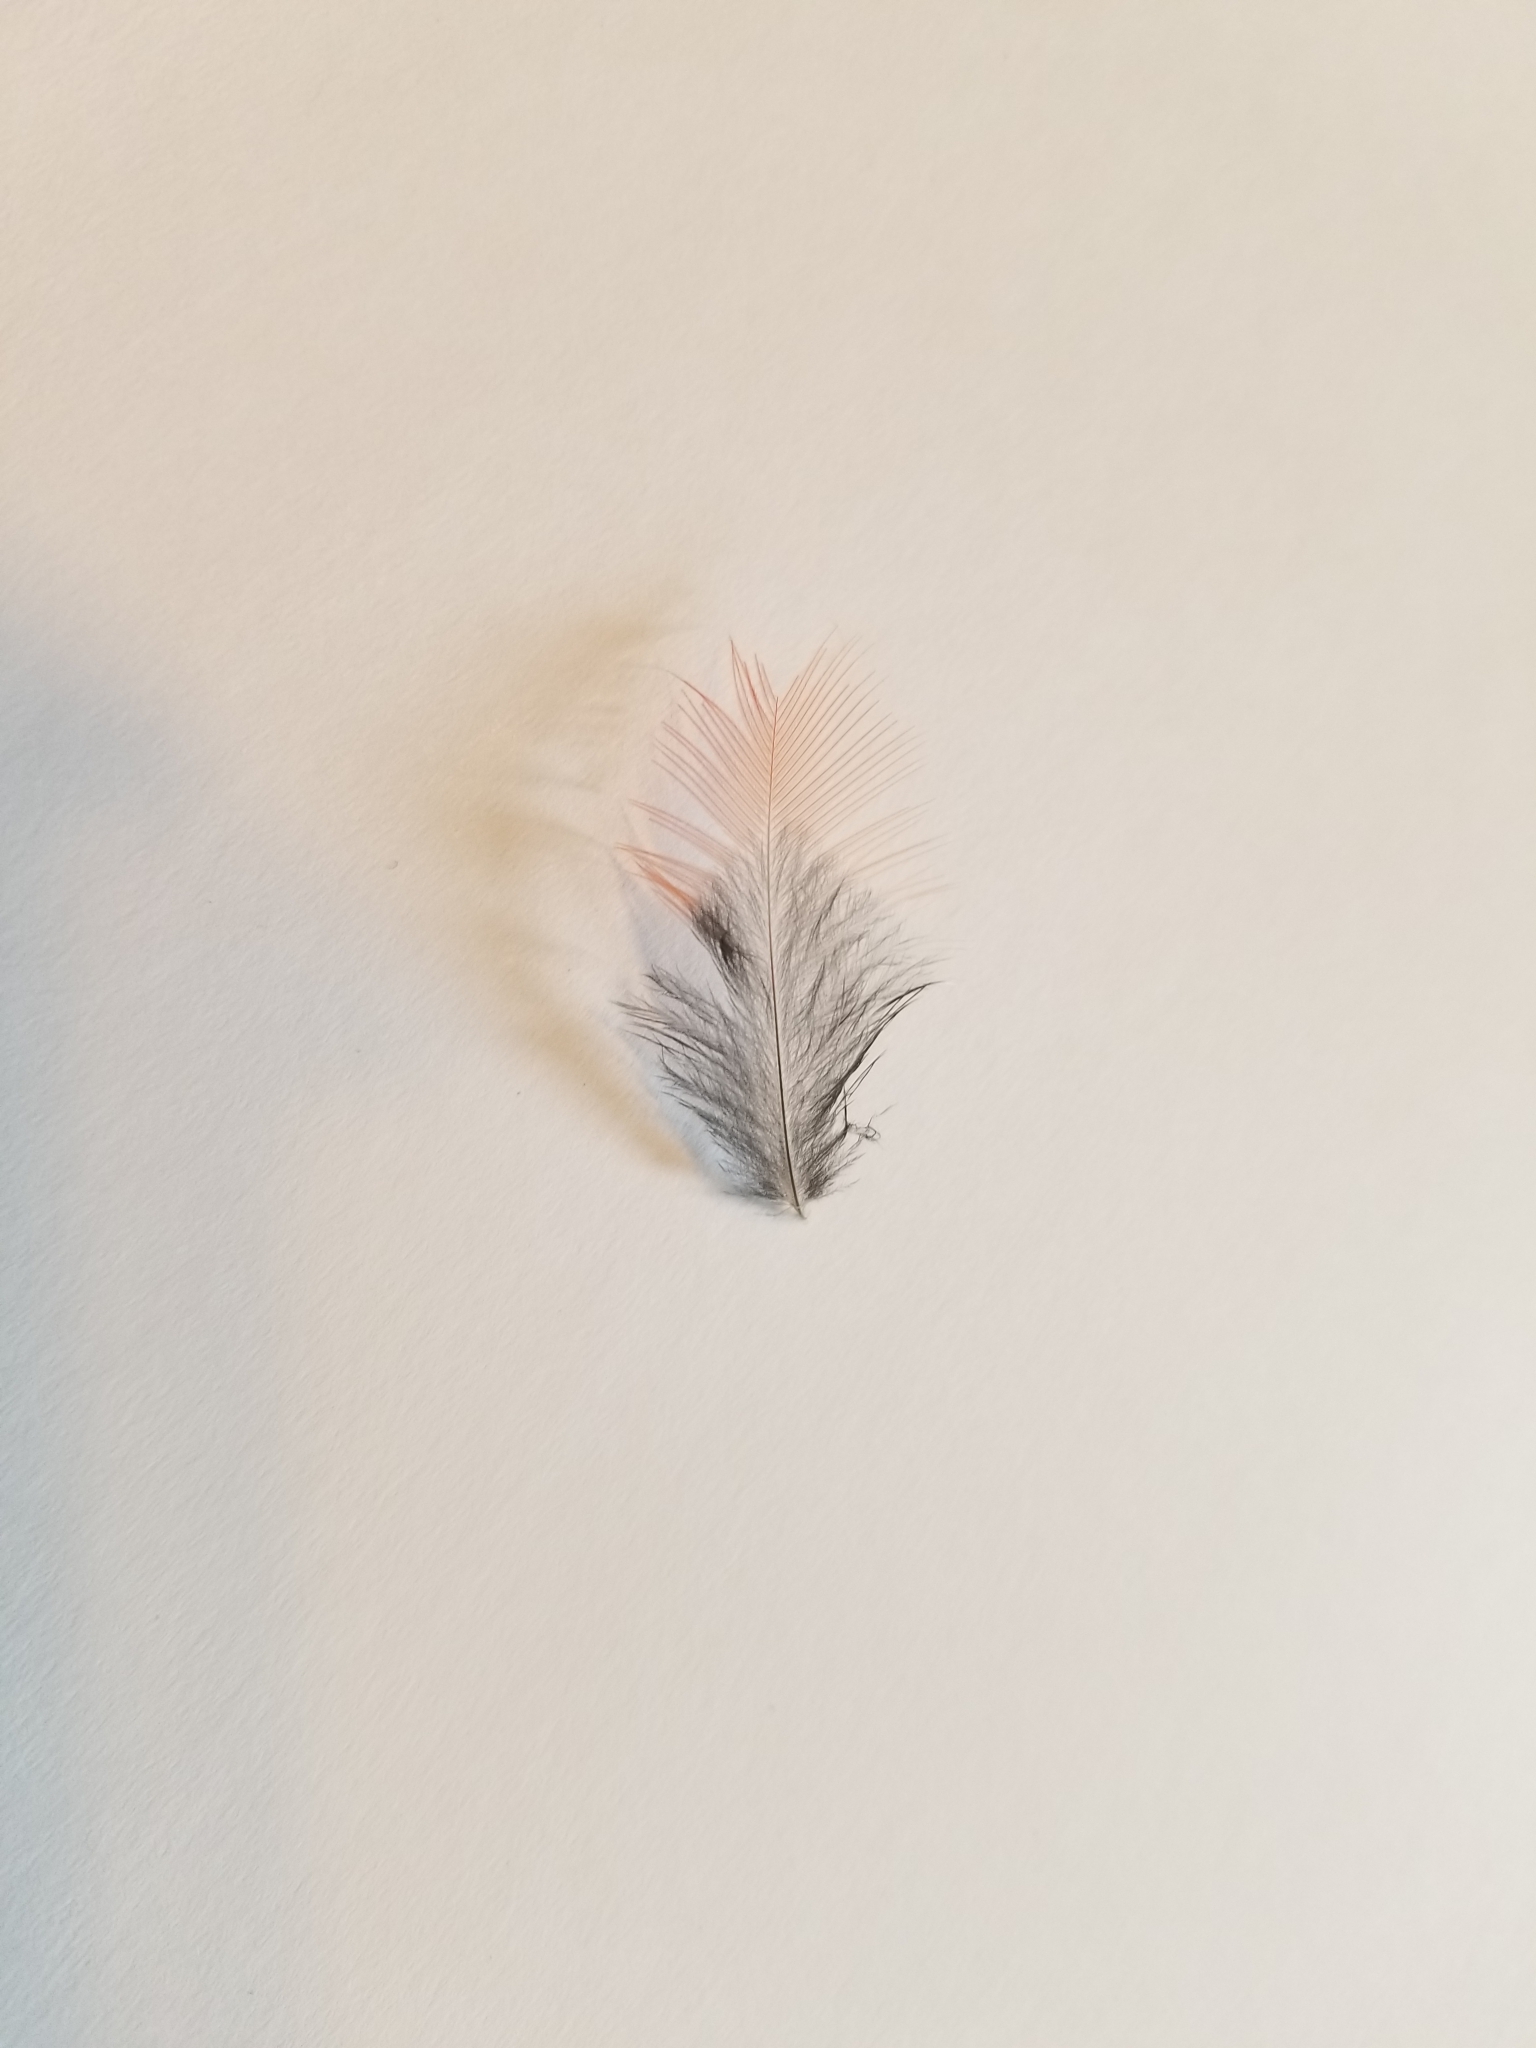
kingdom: Animalia
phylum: Chordata
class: Aves
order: Passeriformes
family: Cardinalidae
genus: Cardinalis
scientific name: Cardinalis cardinalis
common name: Northern cardinal
